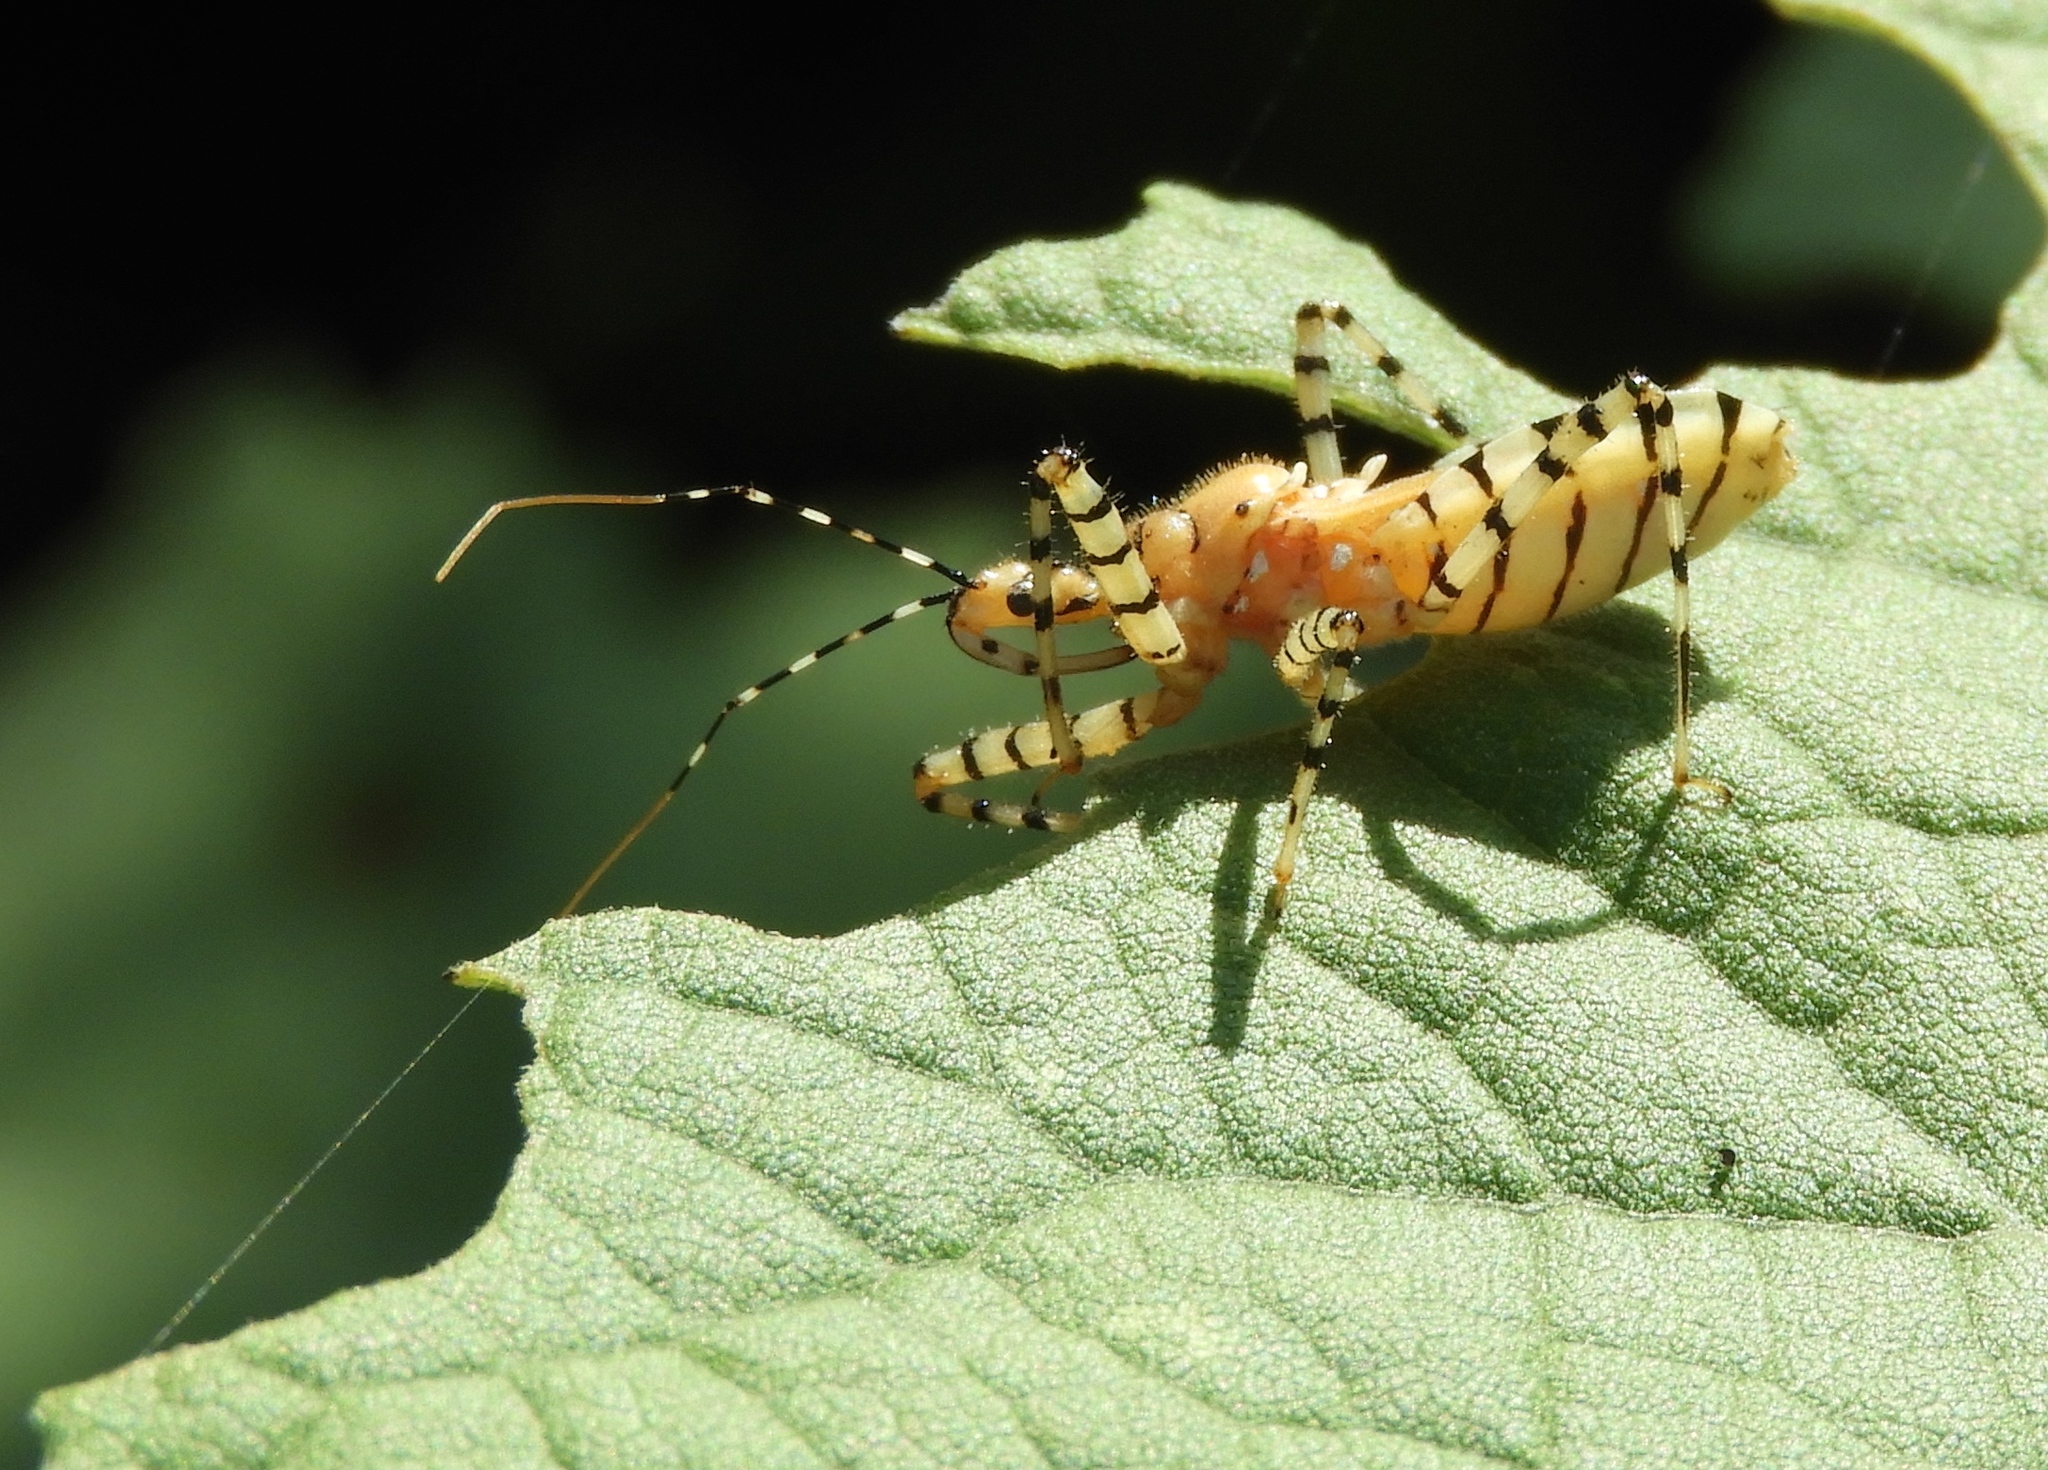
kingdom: Animalia
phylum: Arthropoda
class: Insecta
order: Hemiptera
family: Reduviidae
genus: Pselliopus
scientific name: Pselliopus
